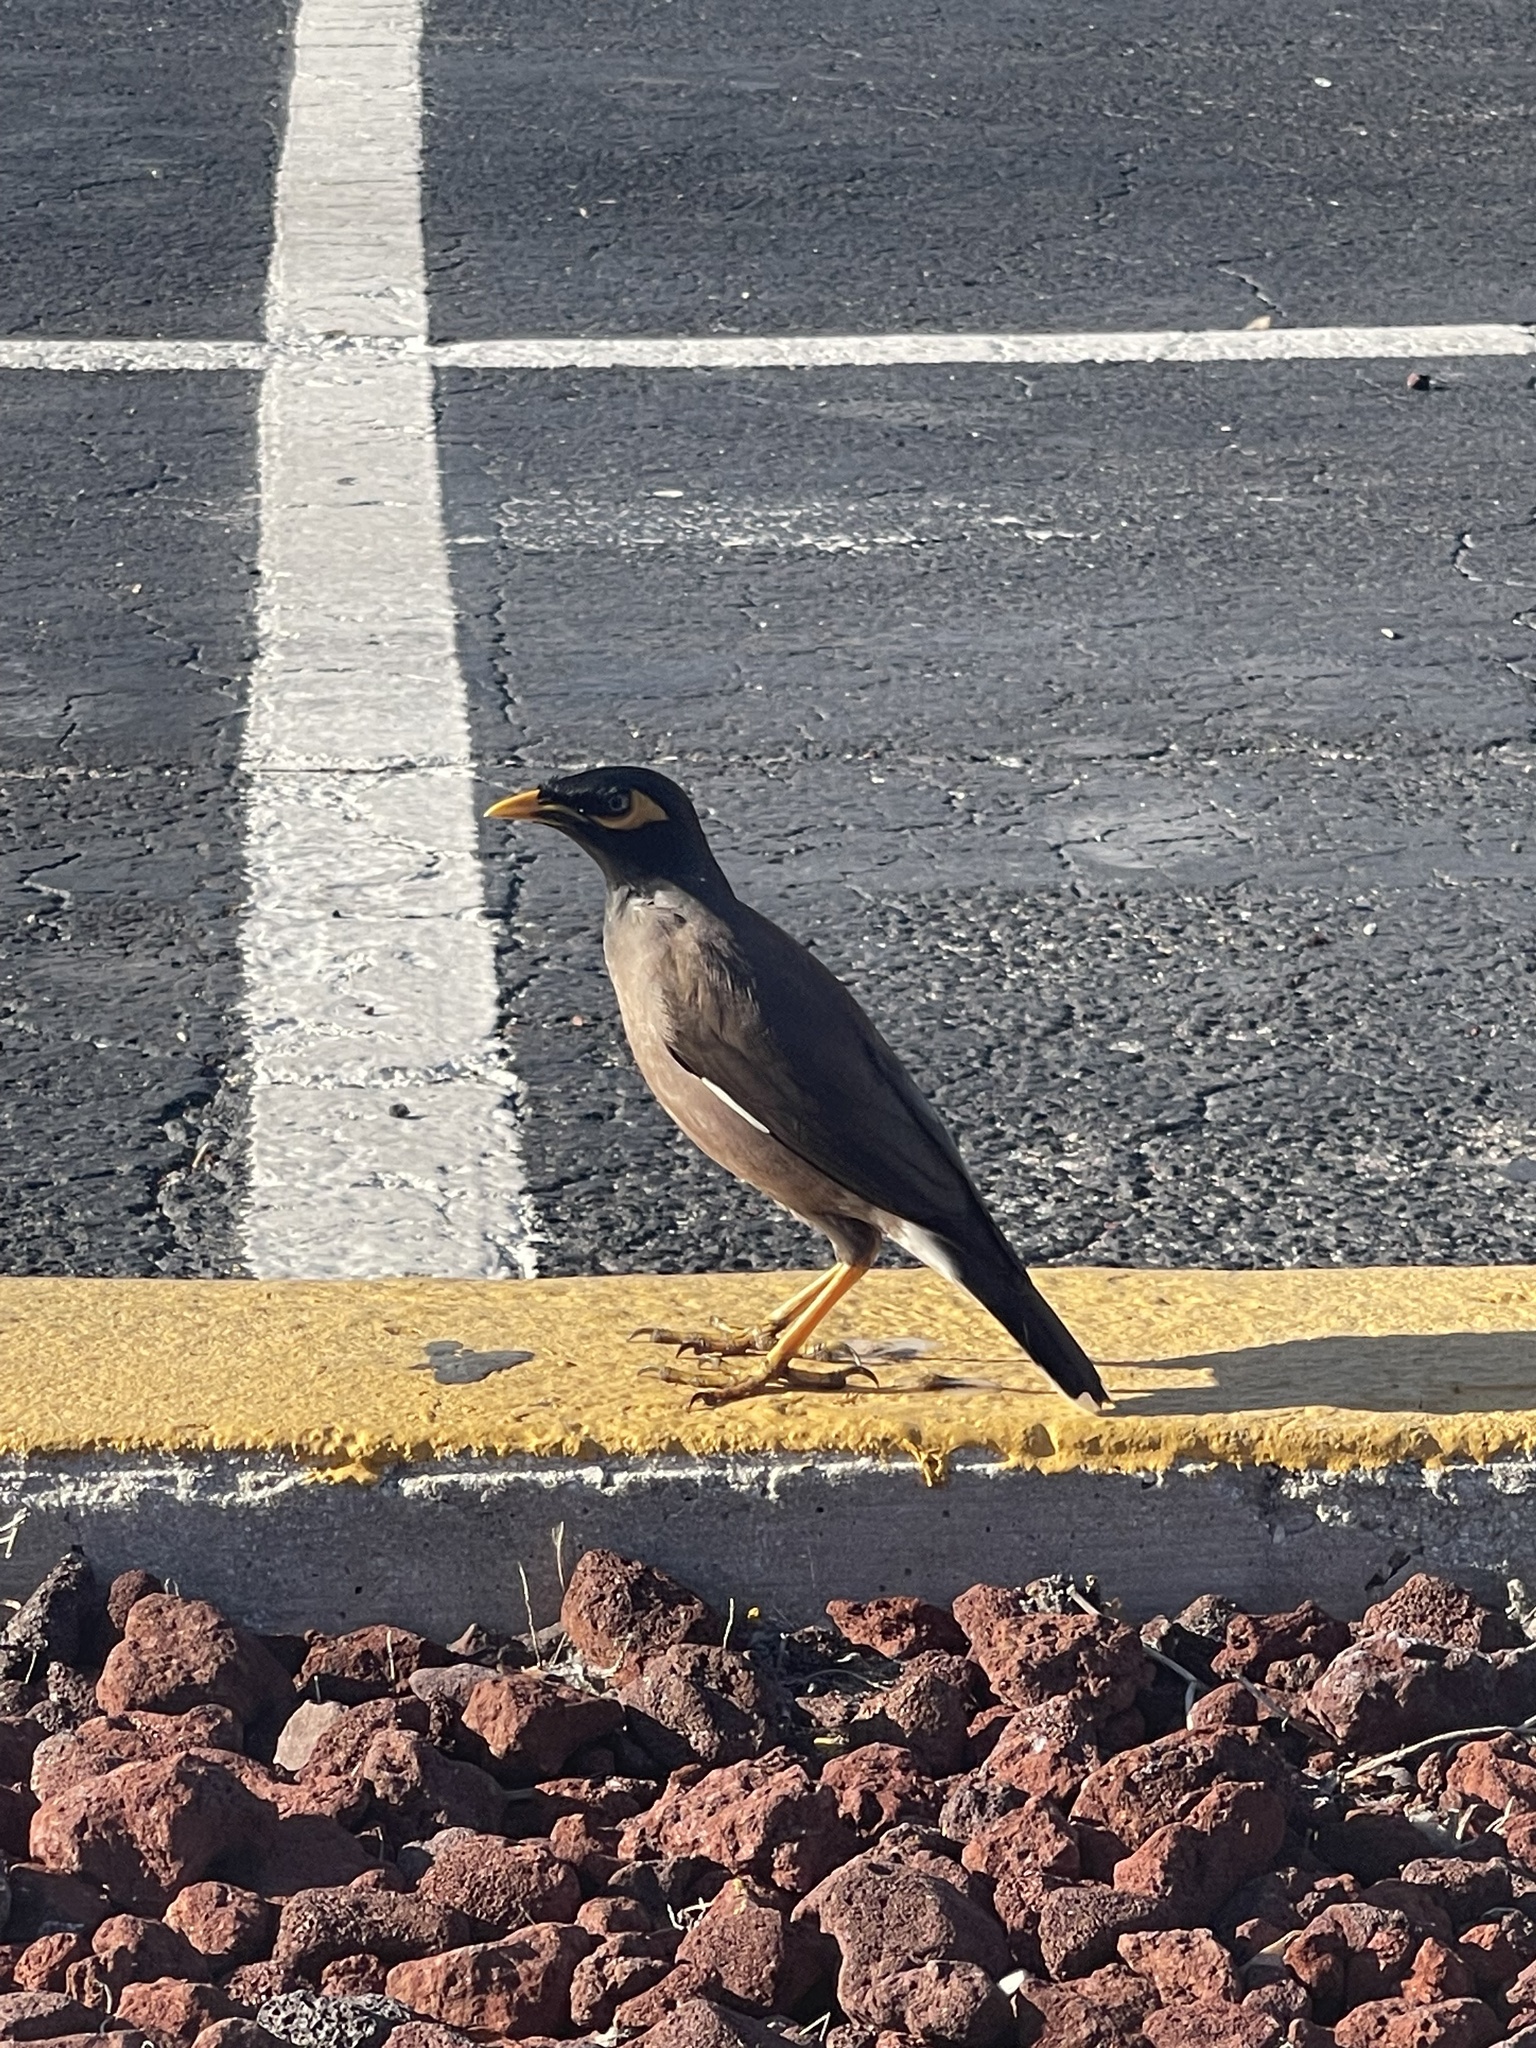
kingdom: Animalia
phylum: Chordata
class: Aves
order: Passeriformes
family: Sturnidae
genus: Acridotheres
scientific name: Acridotheres tristis
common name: Common myna
